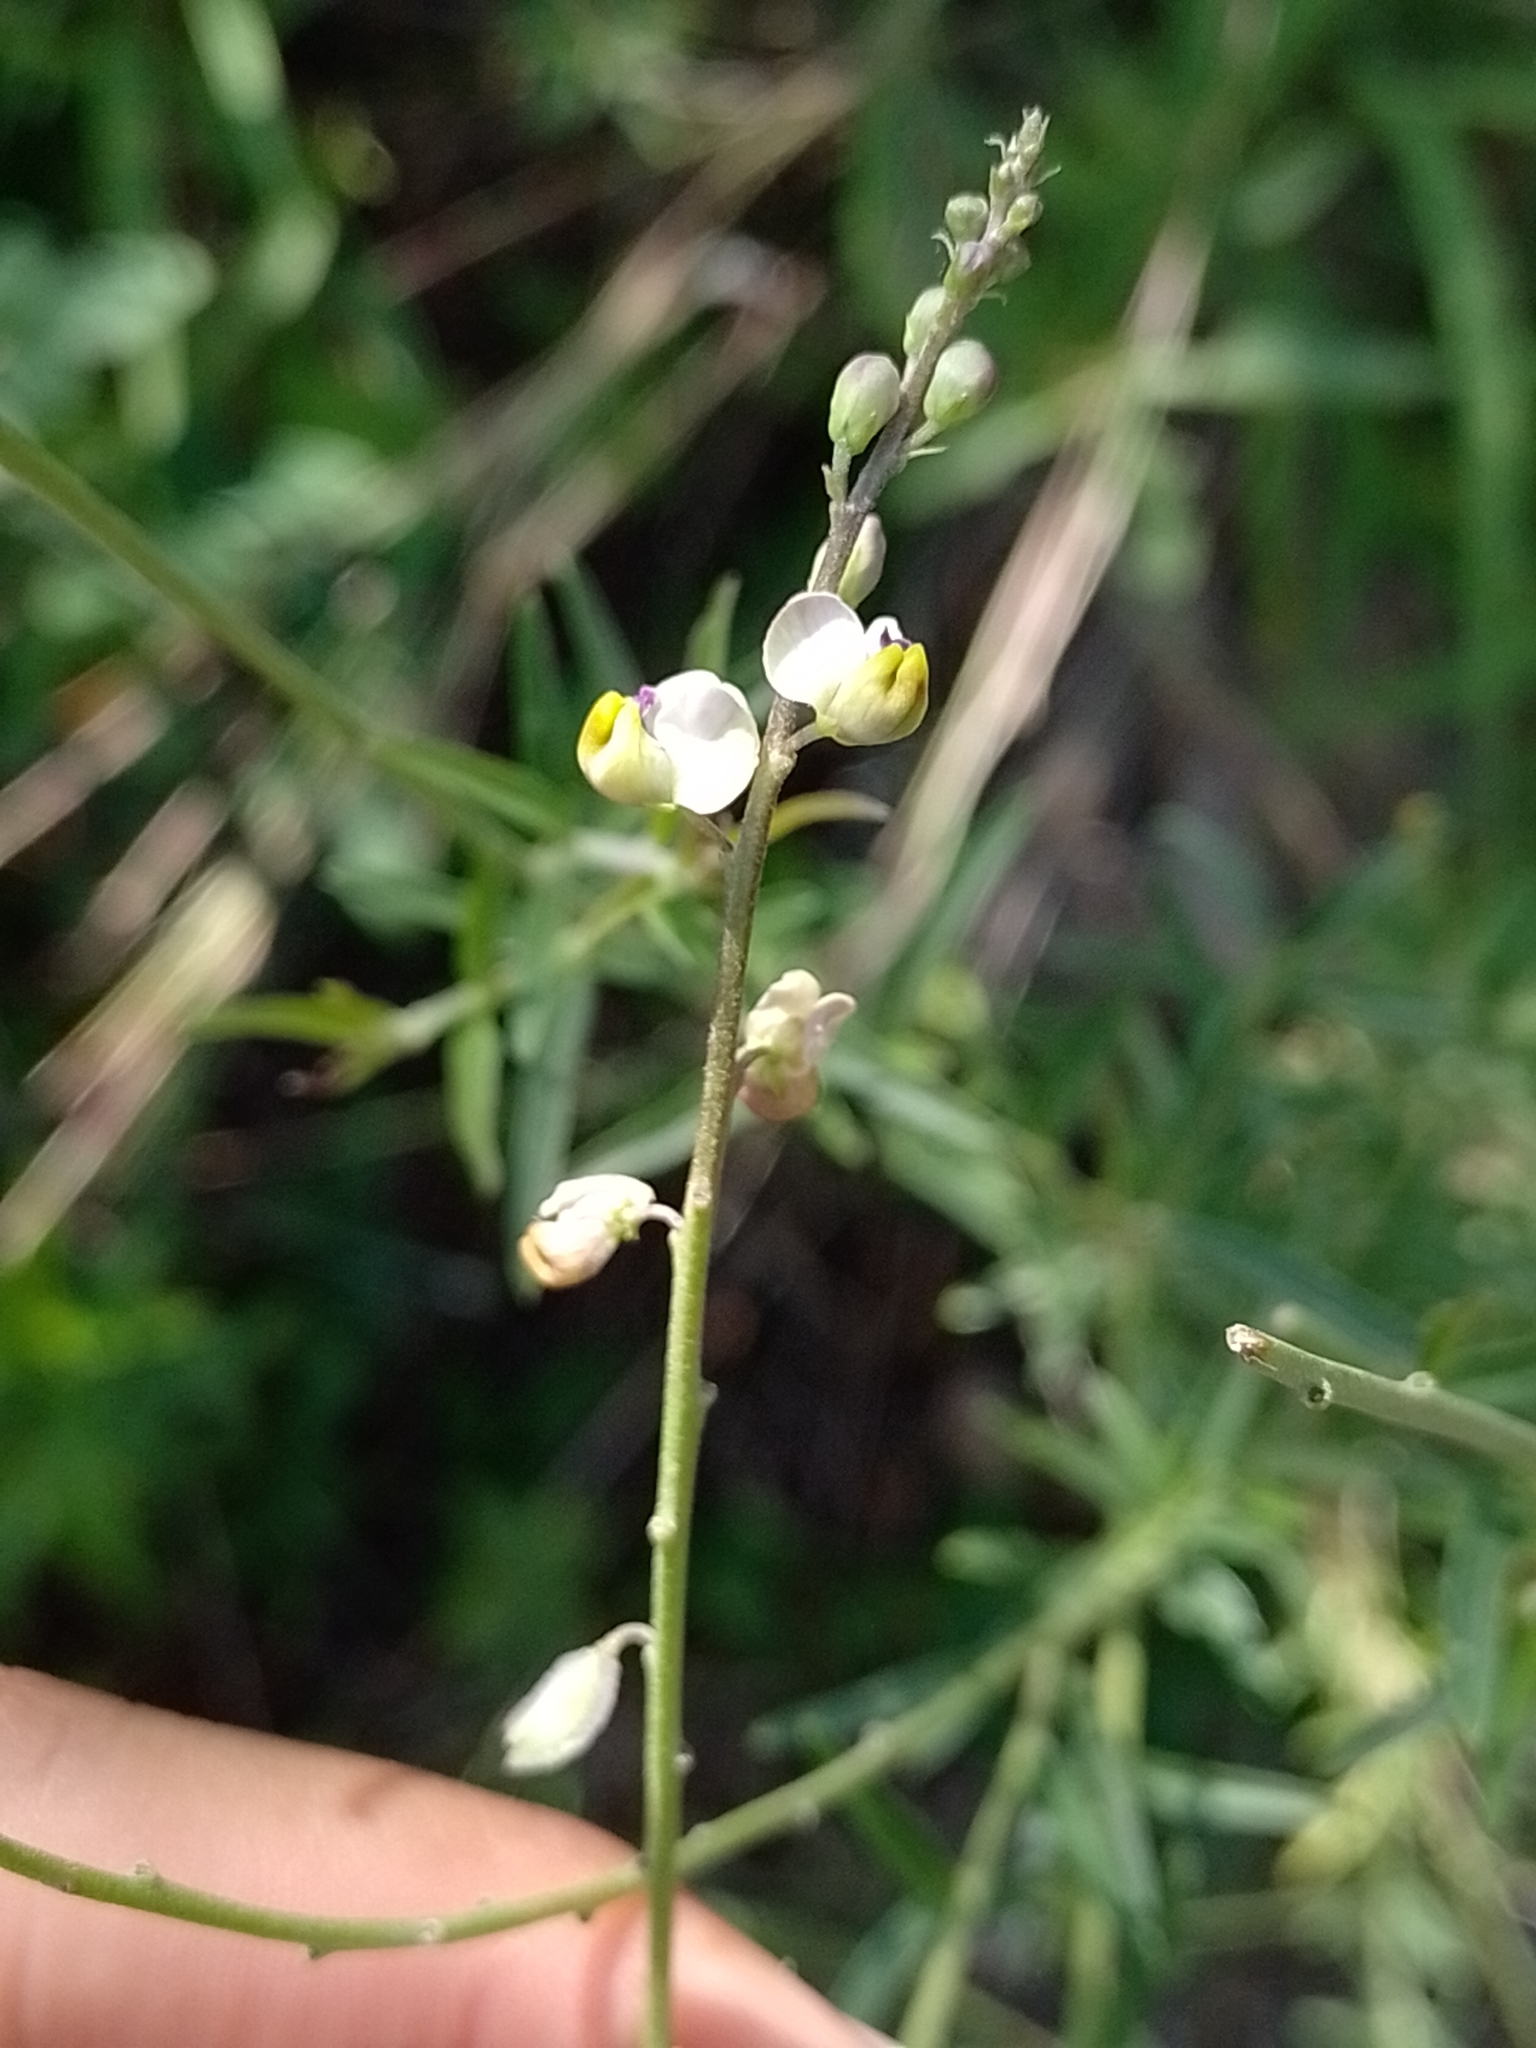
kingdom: Plantae
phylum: Tracheophyta
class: Magnoliopsida
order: Fabales
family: Polygalaceae
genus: Monnina
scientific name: Monnina dictyocarpa
